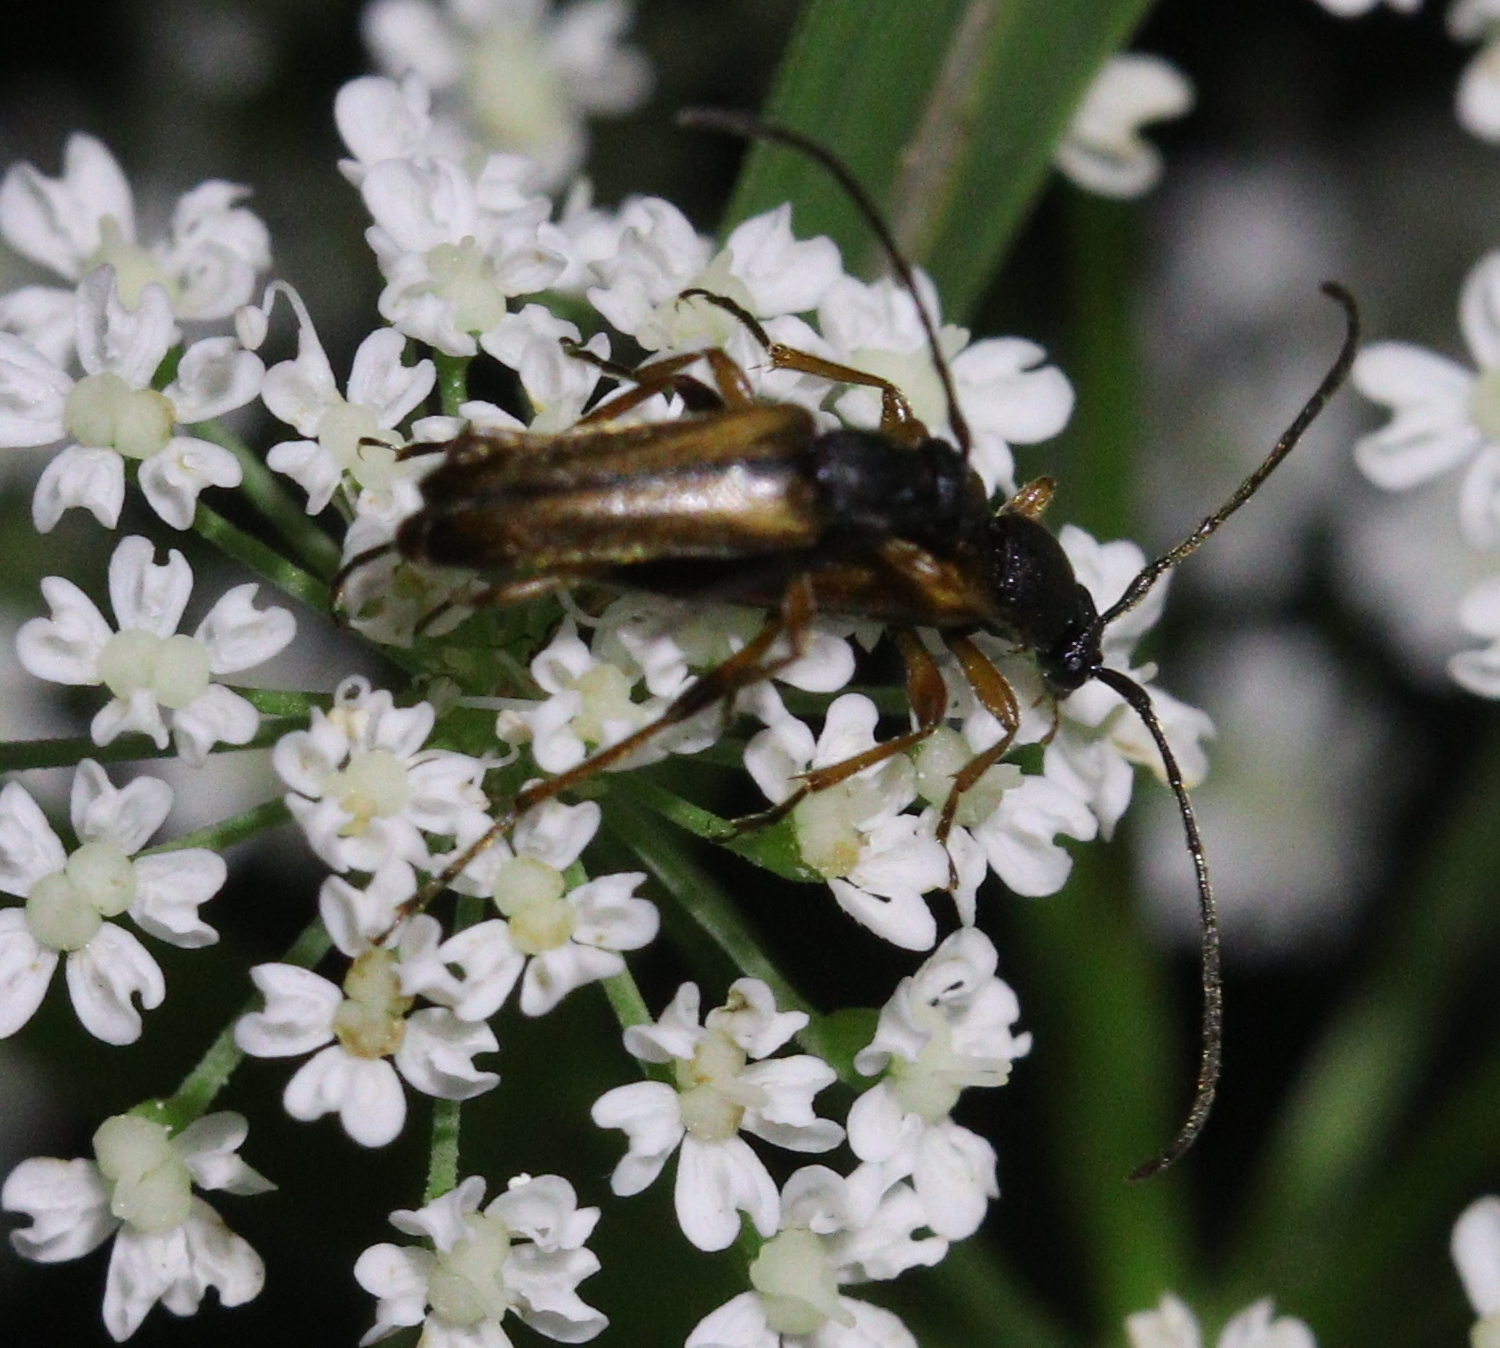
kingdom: Animalia
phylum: Arthropoda
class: Insecta
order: Coleoptera
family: Cerambycidae
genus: Alosterna
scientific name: Alosterna tabacicolor
